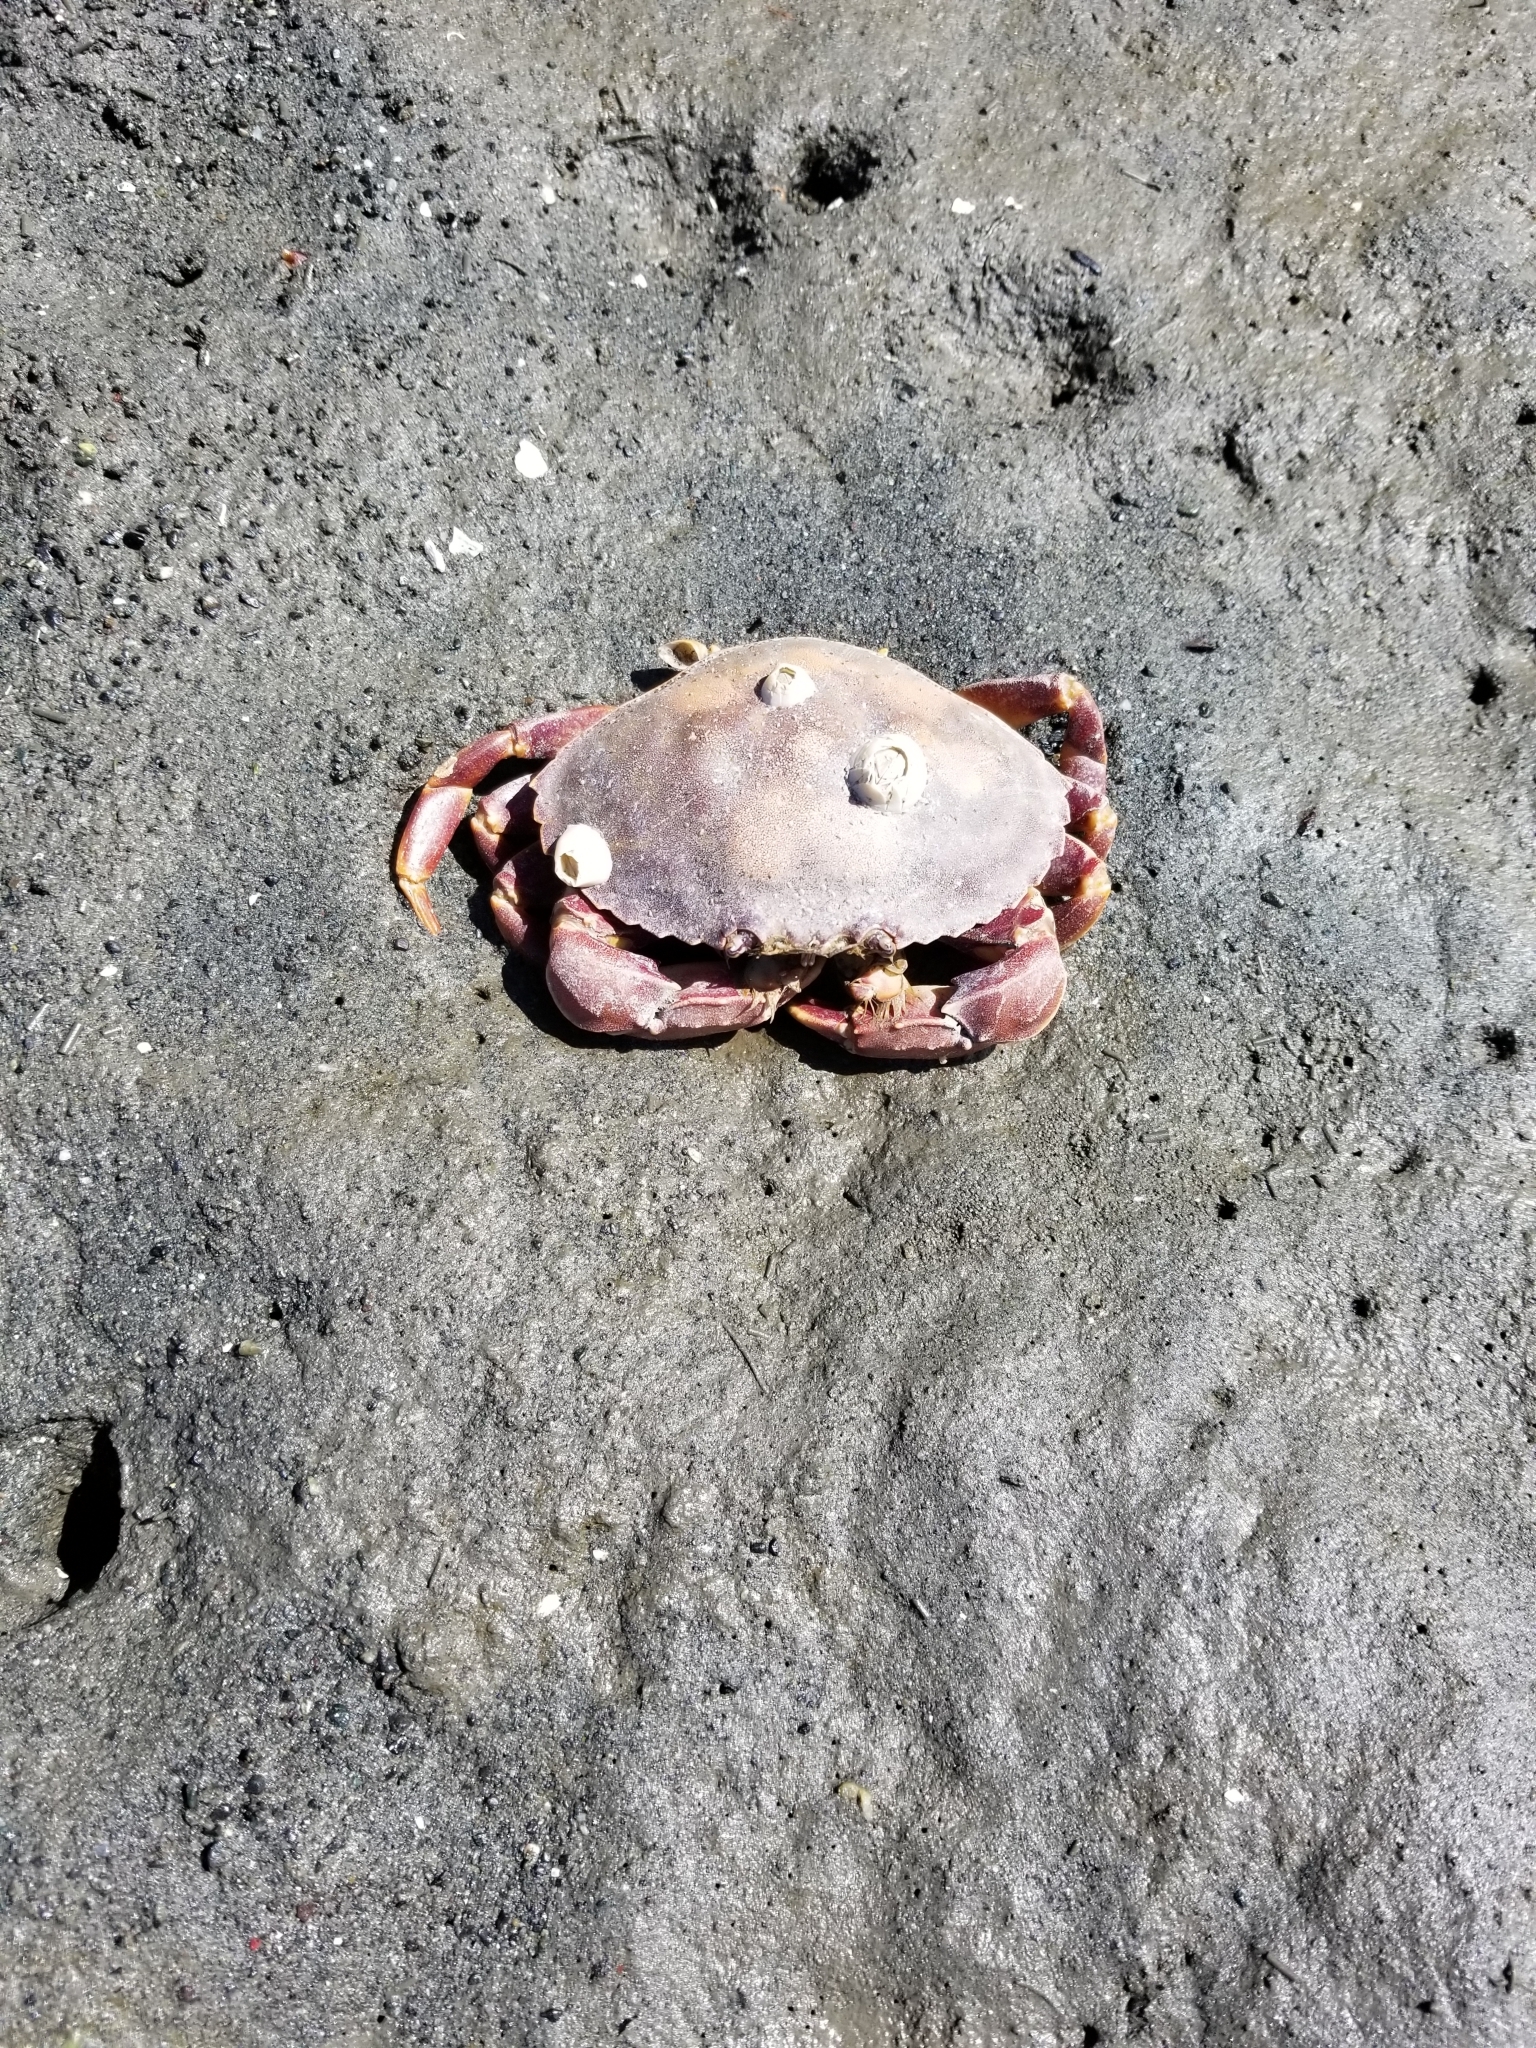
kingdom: Animalia
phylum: Arthropoda
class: Malacostraca
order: Decapoda
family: Cancridae
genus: Metacarcinus
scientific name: Metacarcinus gracilis
